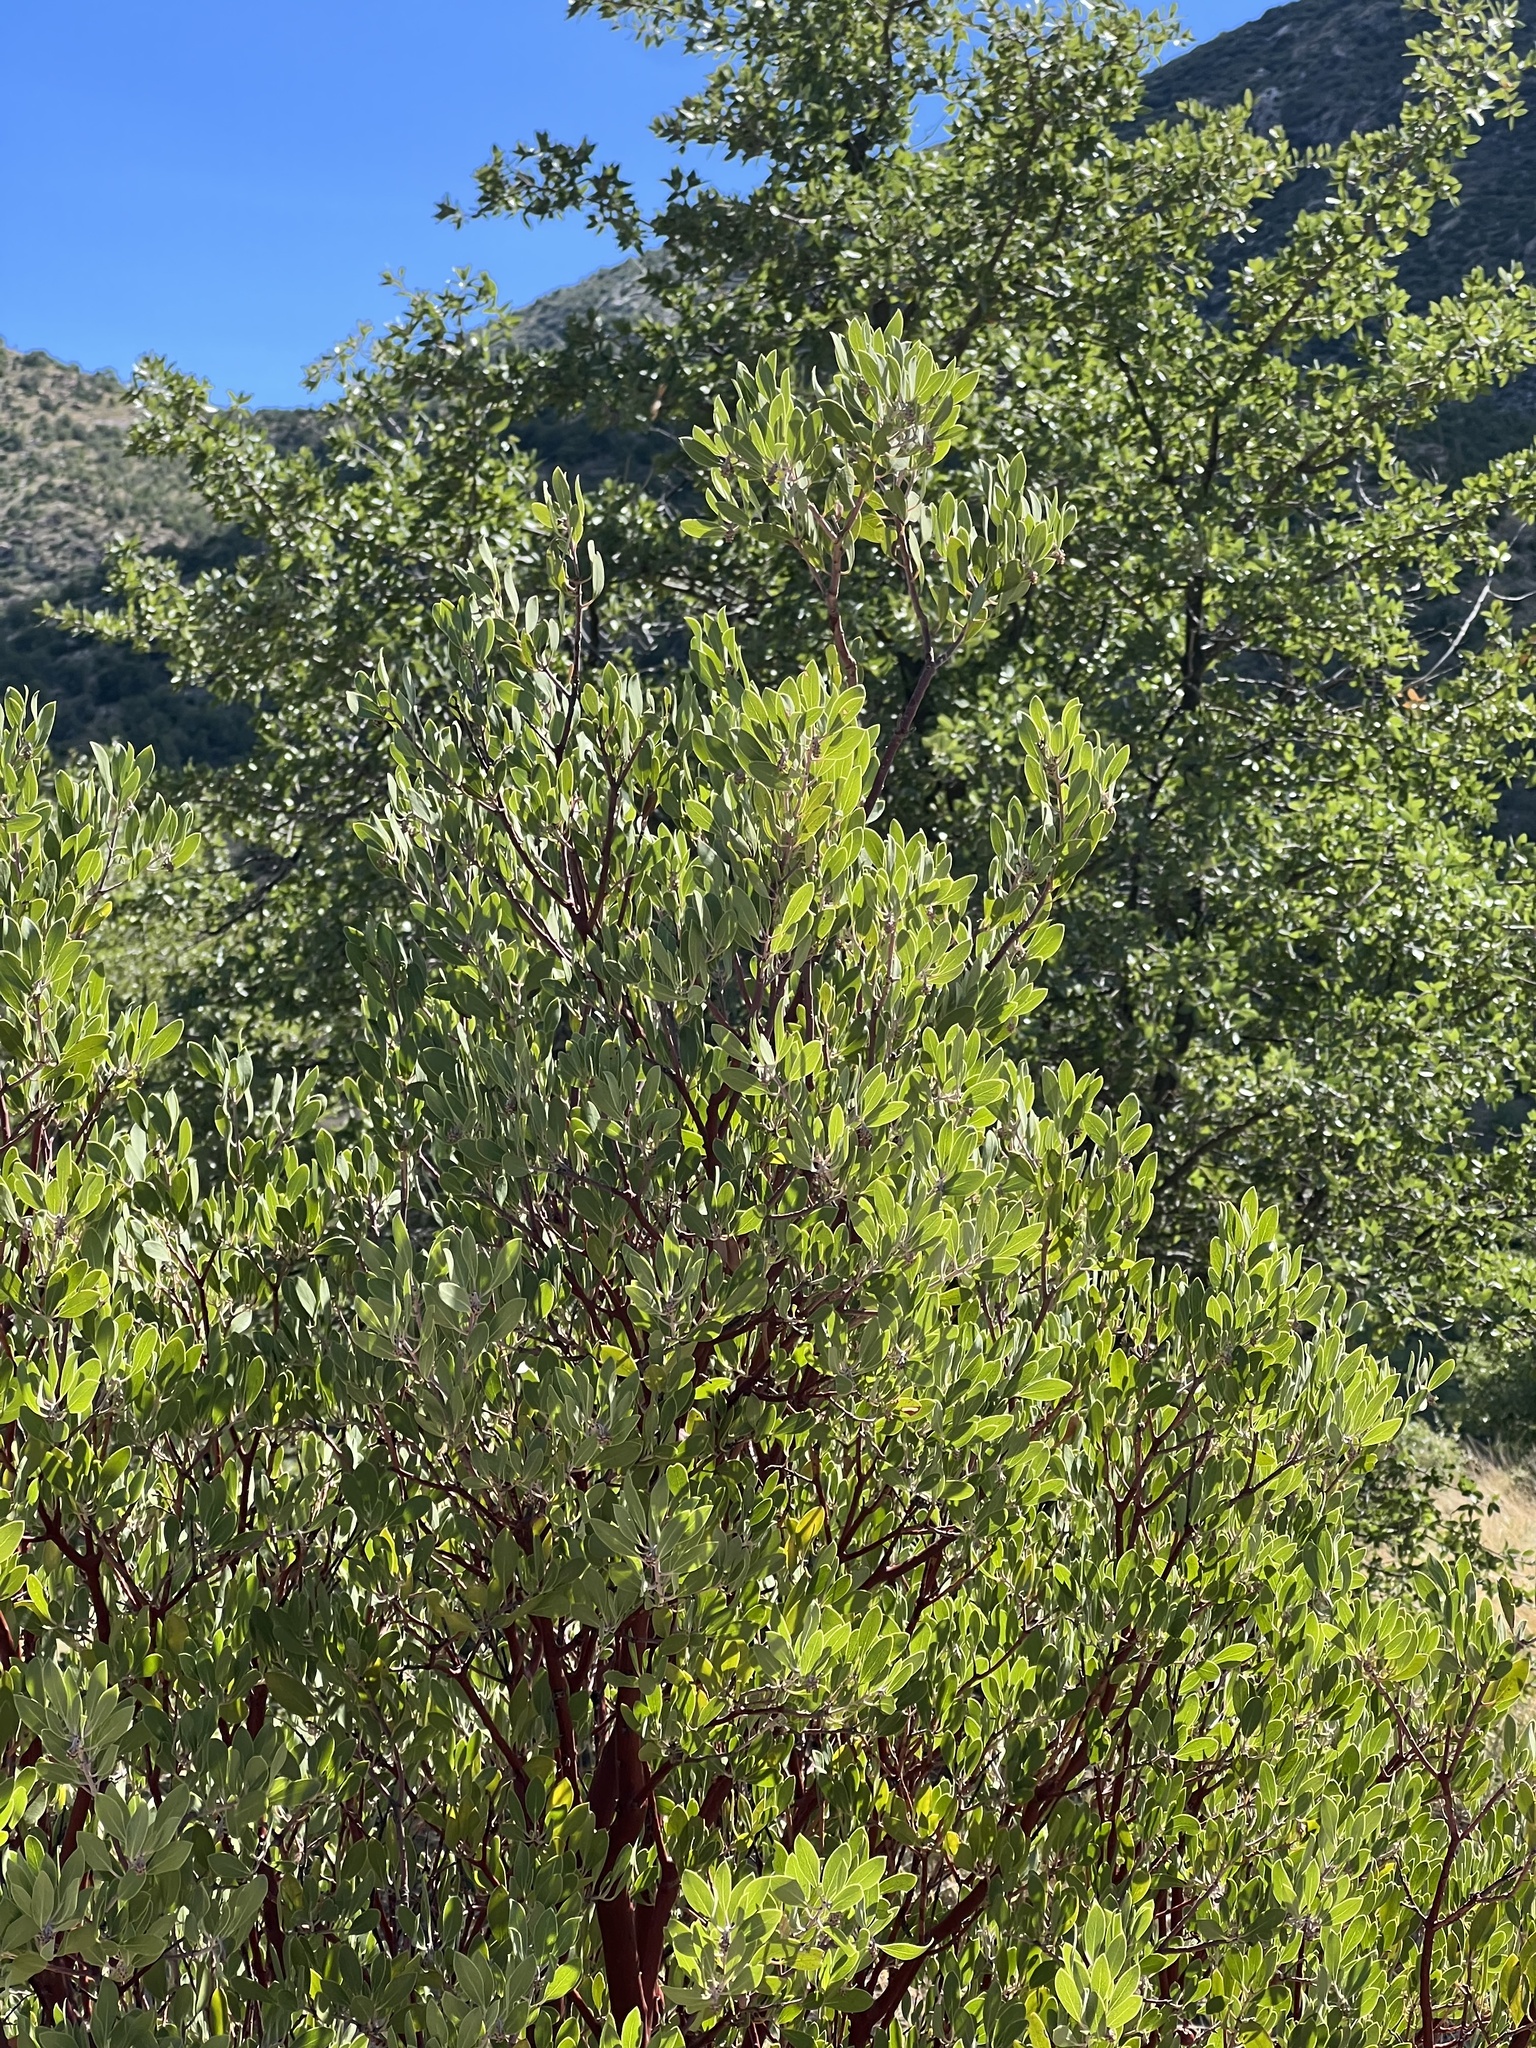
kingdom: Plantae
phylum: Tracheophyta
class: Magnoliopsida
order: Ericales
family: Ericaceae
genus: Arctostaphylos
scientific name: Arctostaphylos pungens
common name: Mexican manzanita
